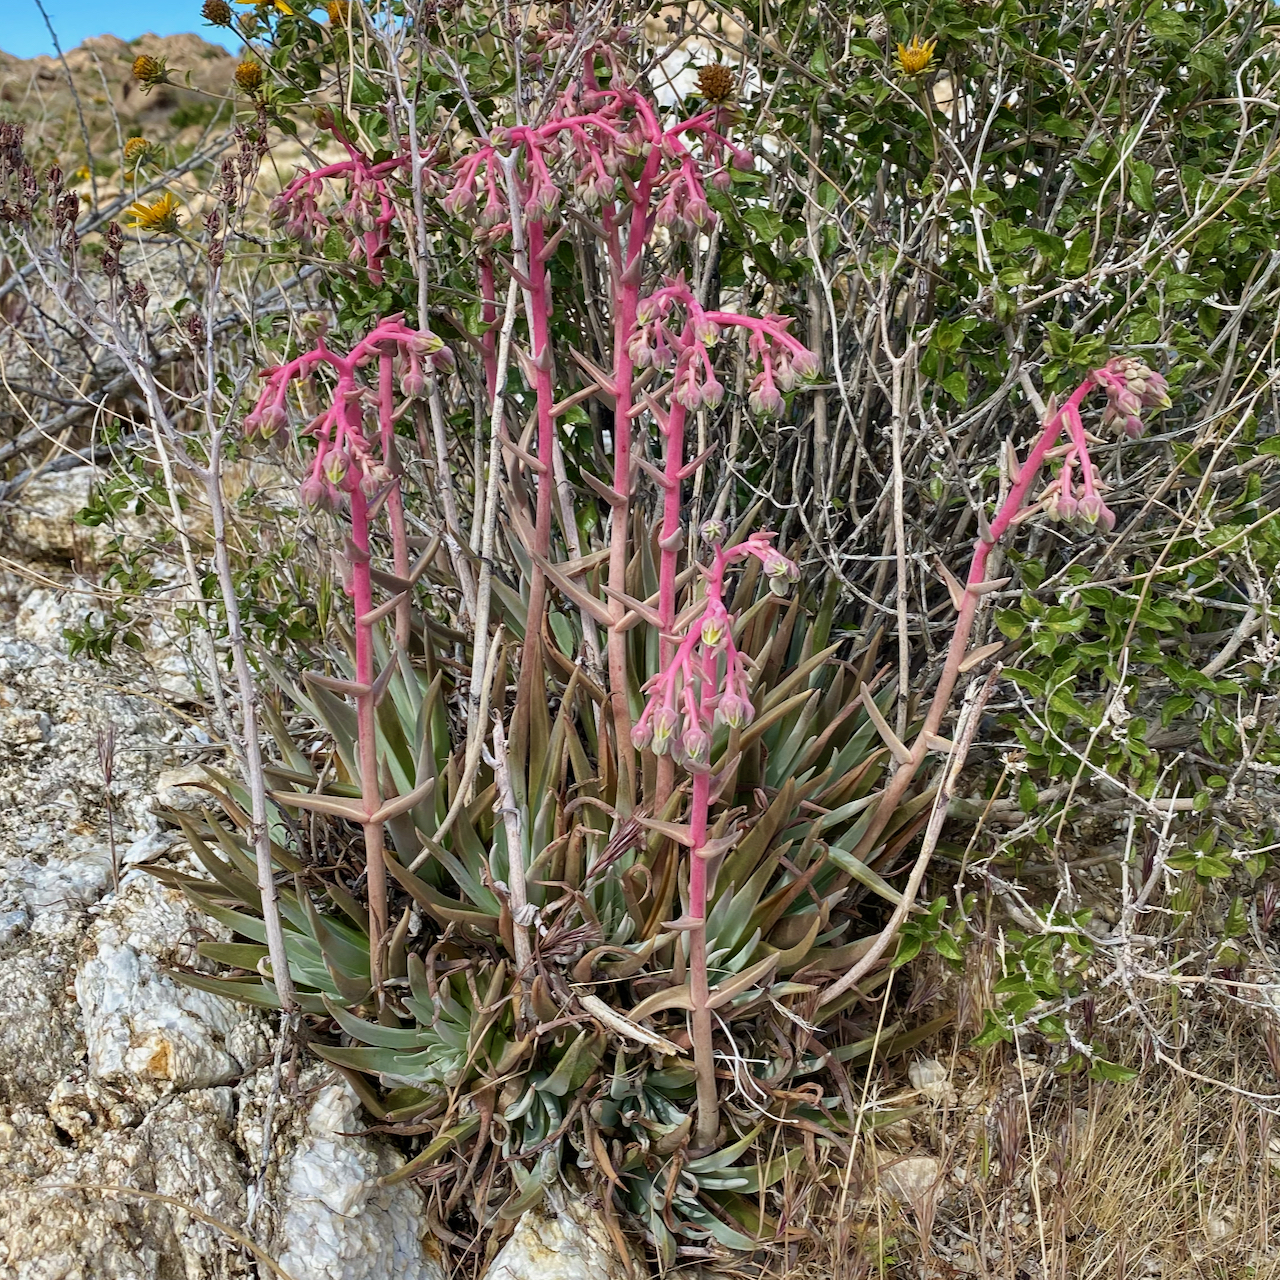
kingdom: Plantae
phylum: Tracheophyta
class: Magnoliopsida
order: Saxifragales
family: Crassulaceae
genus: Dudleya
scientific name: Dudleya saxosa
